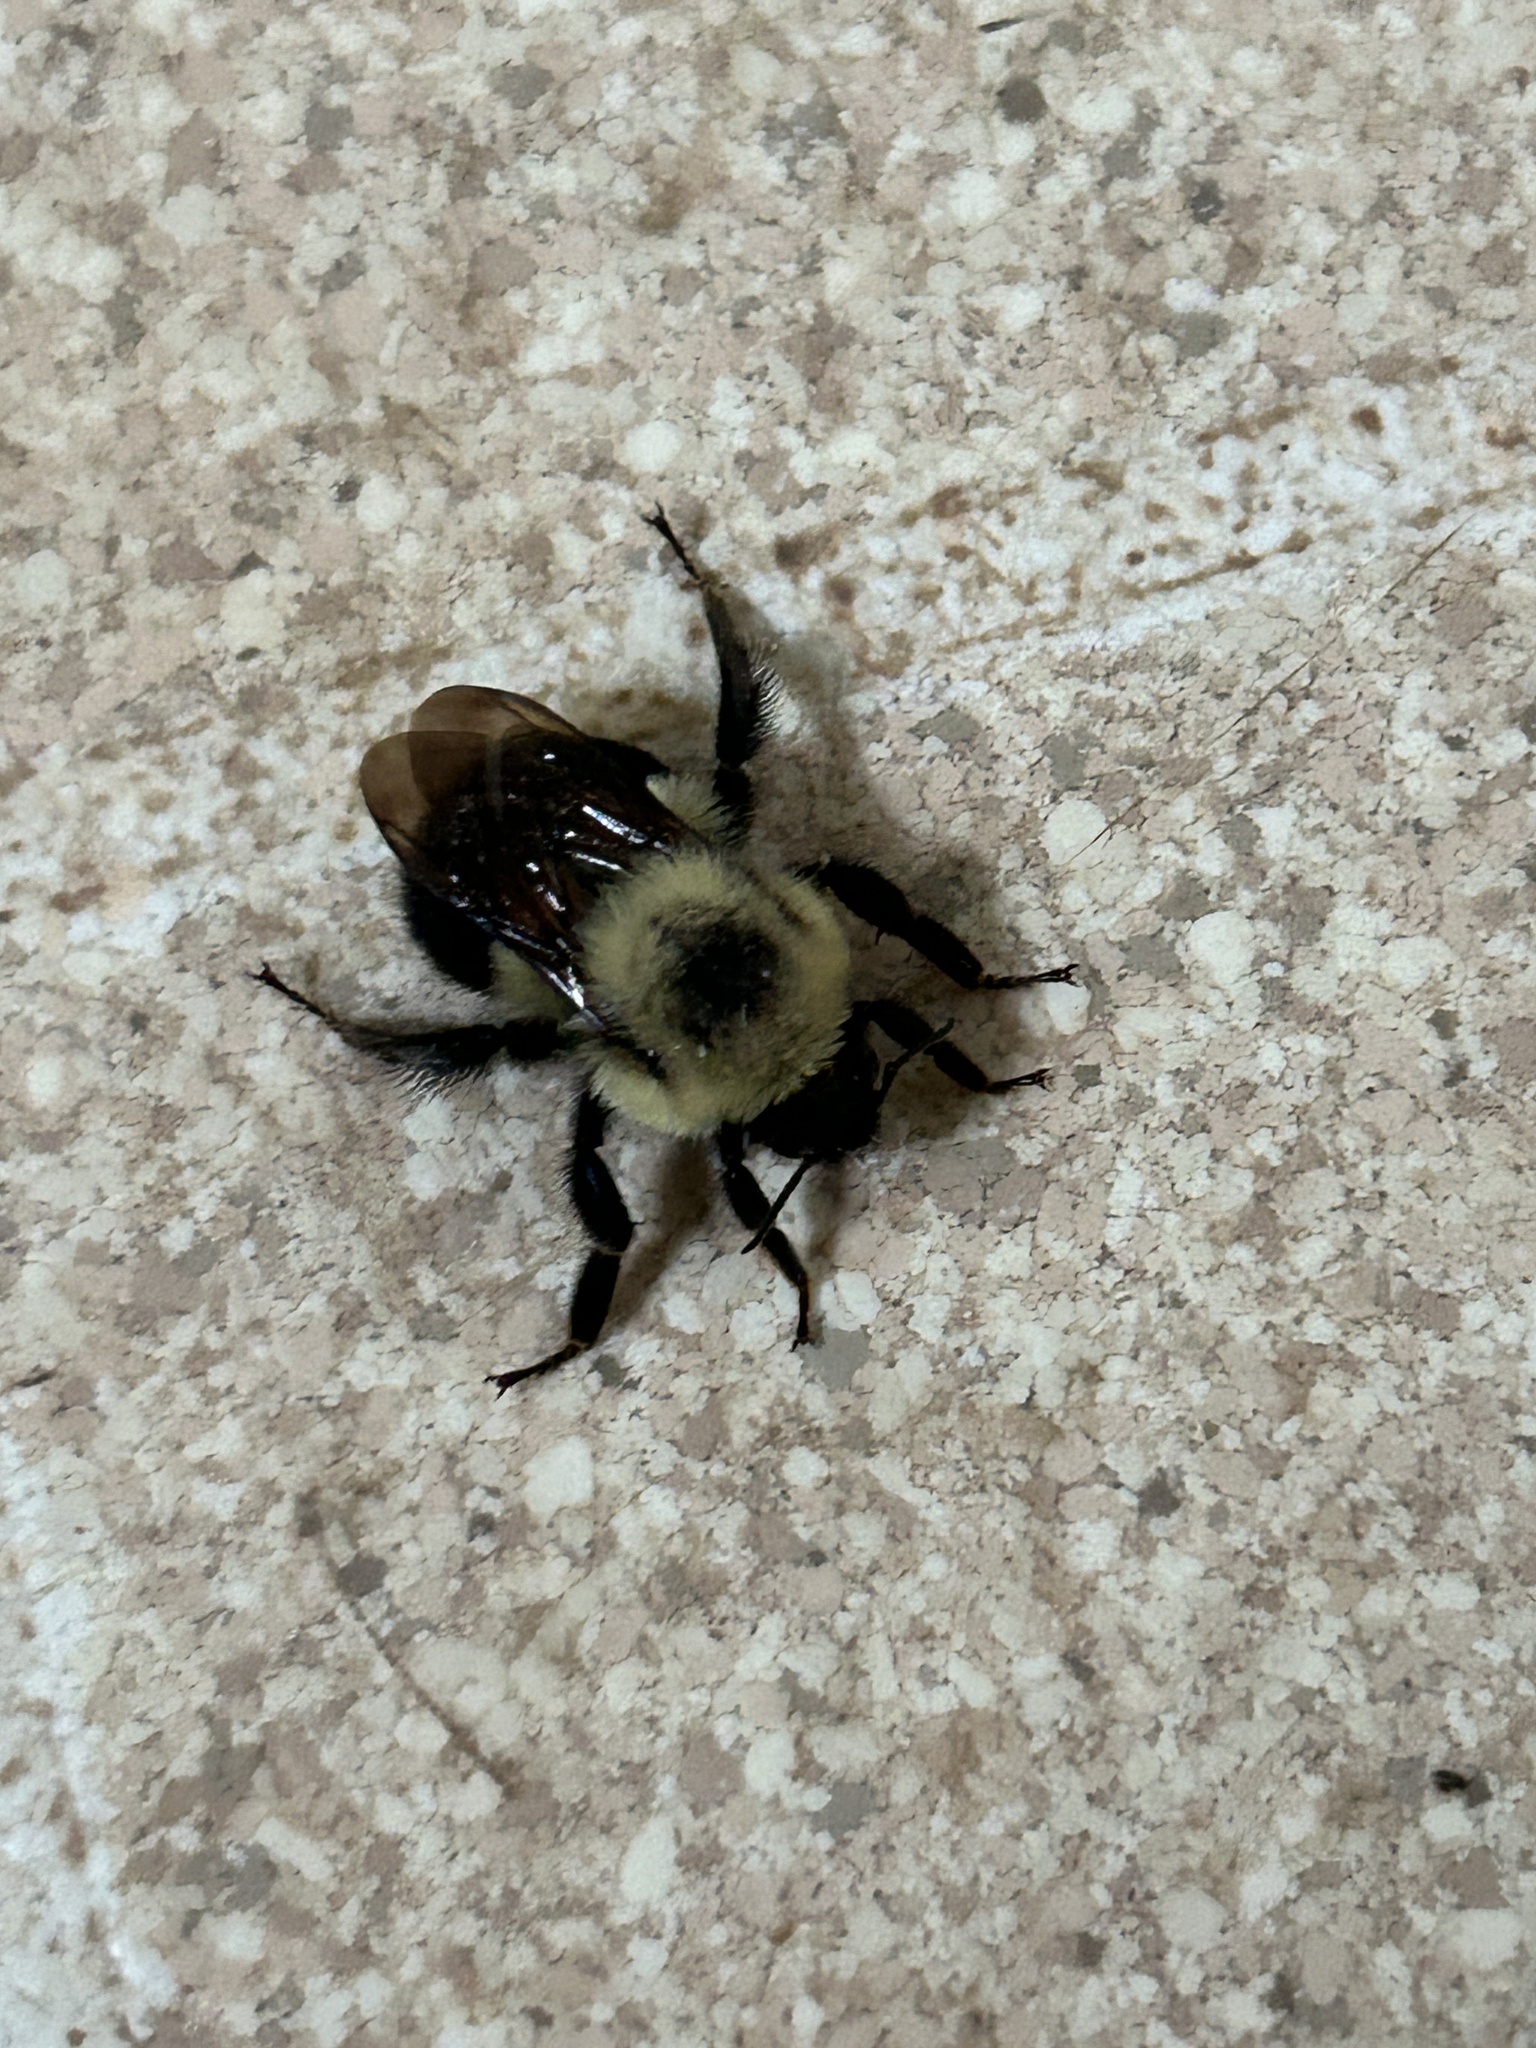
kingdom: Animalia
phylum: Arthropoda
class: Insecta
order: Hymenoptera
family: Apidae
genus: Bombus
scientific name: Bombus bimaculatus
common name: Two-spotted bumble bee
